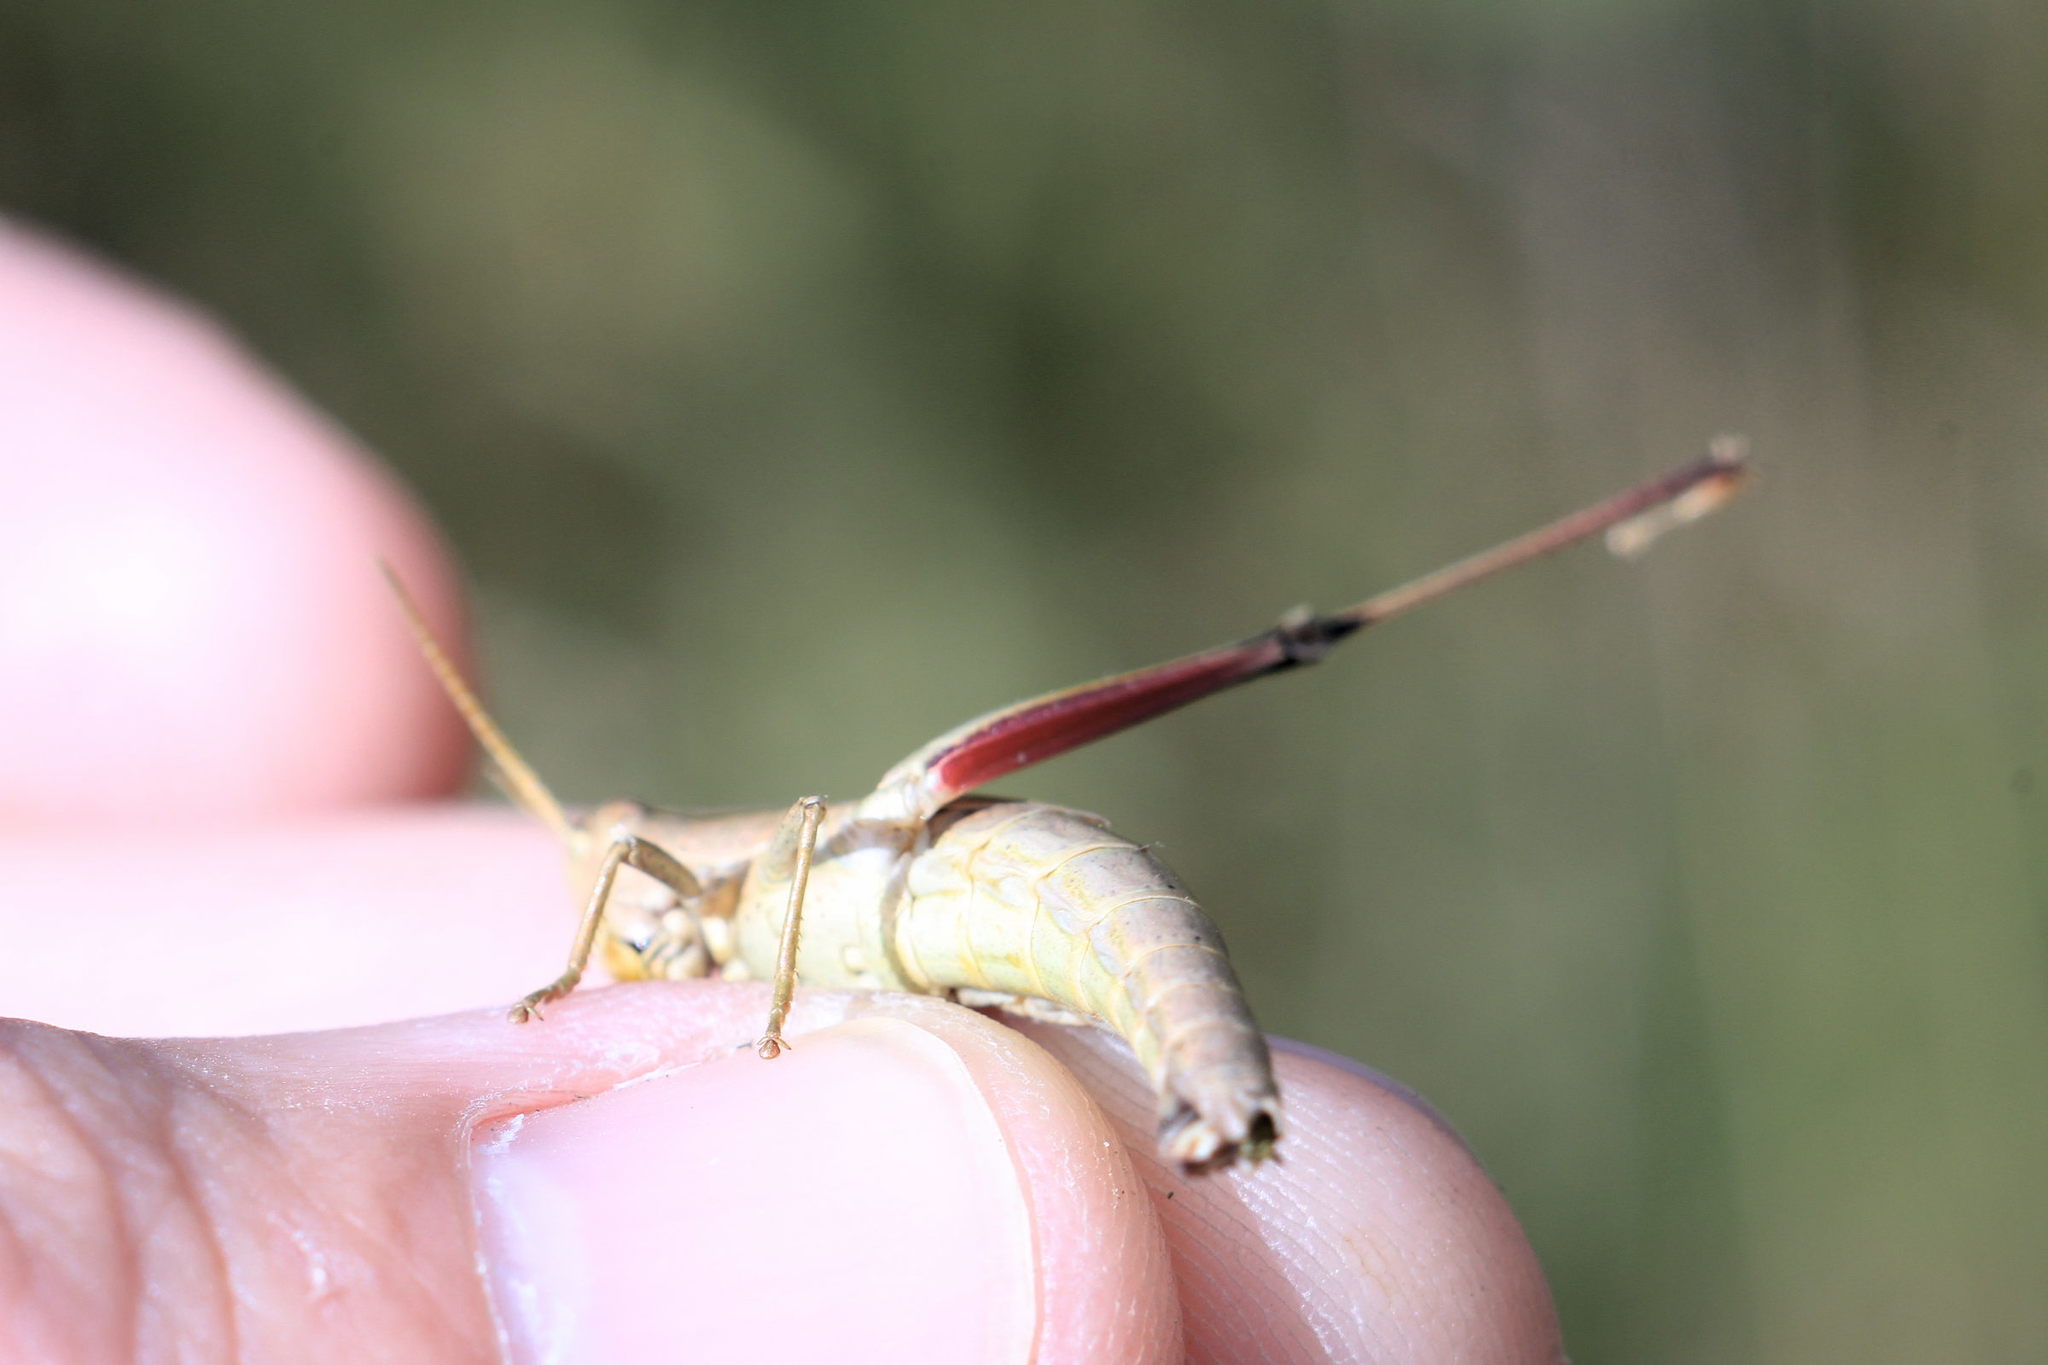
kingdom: Animalia
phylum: Arthropoda
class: Insecta
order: Orthoptera
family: Acrididae
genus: Chrysochraon
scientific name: Chrysochraon dispar
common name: Large gold grasshopper
